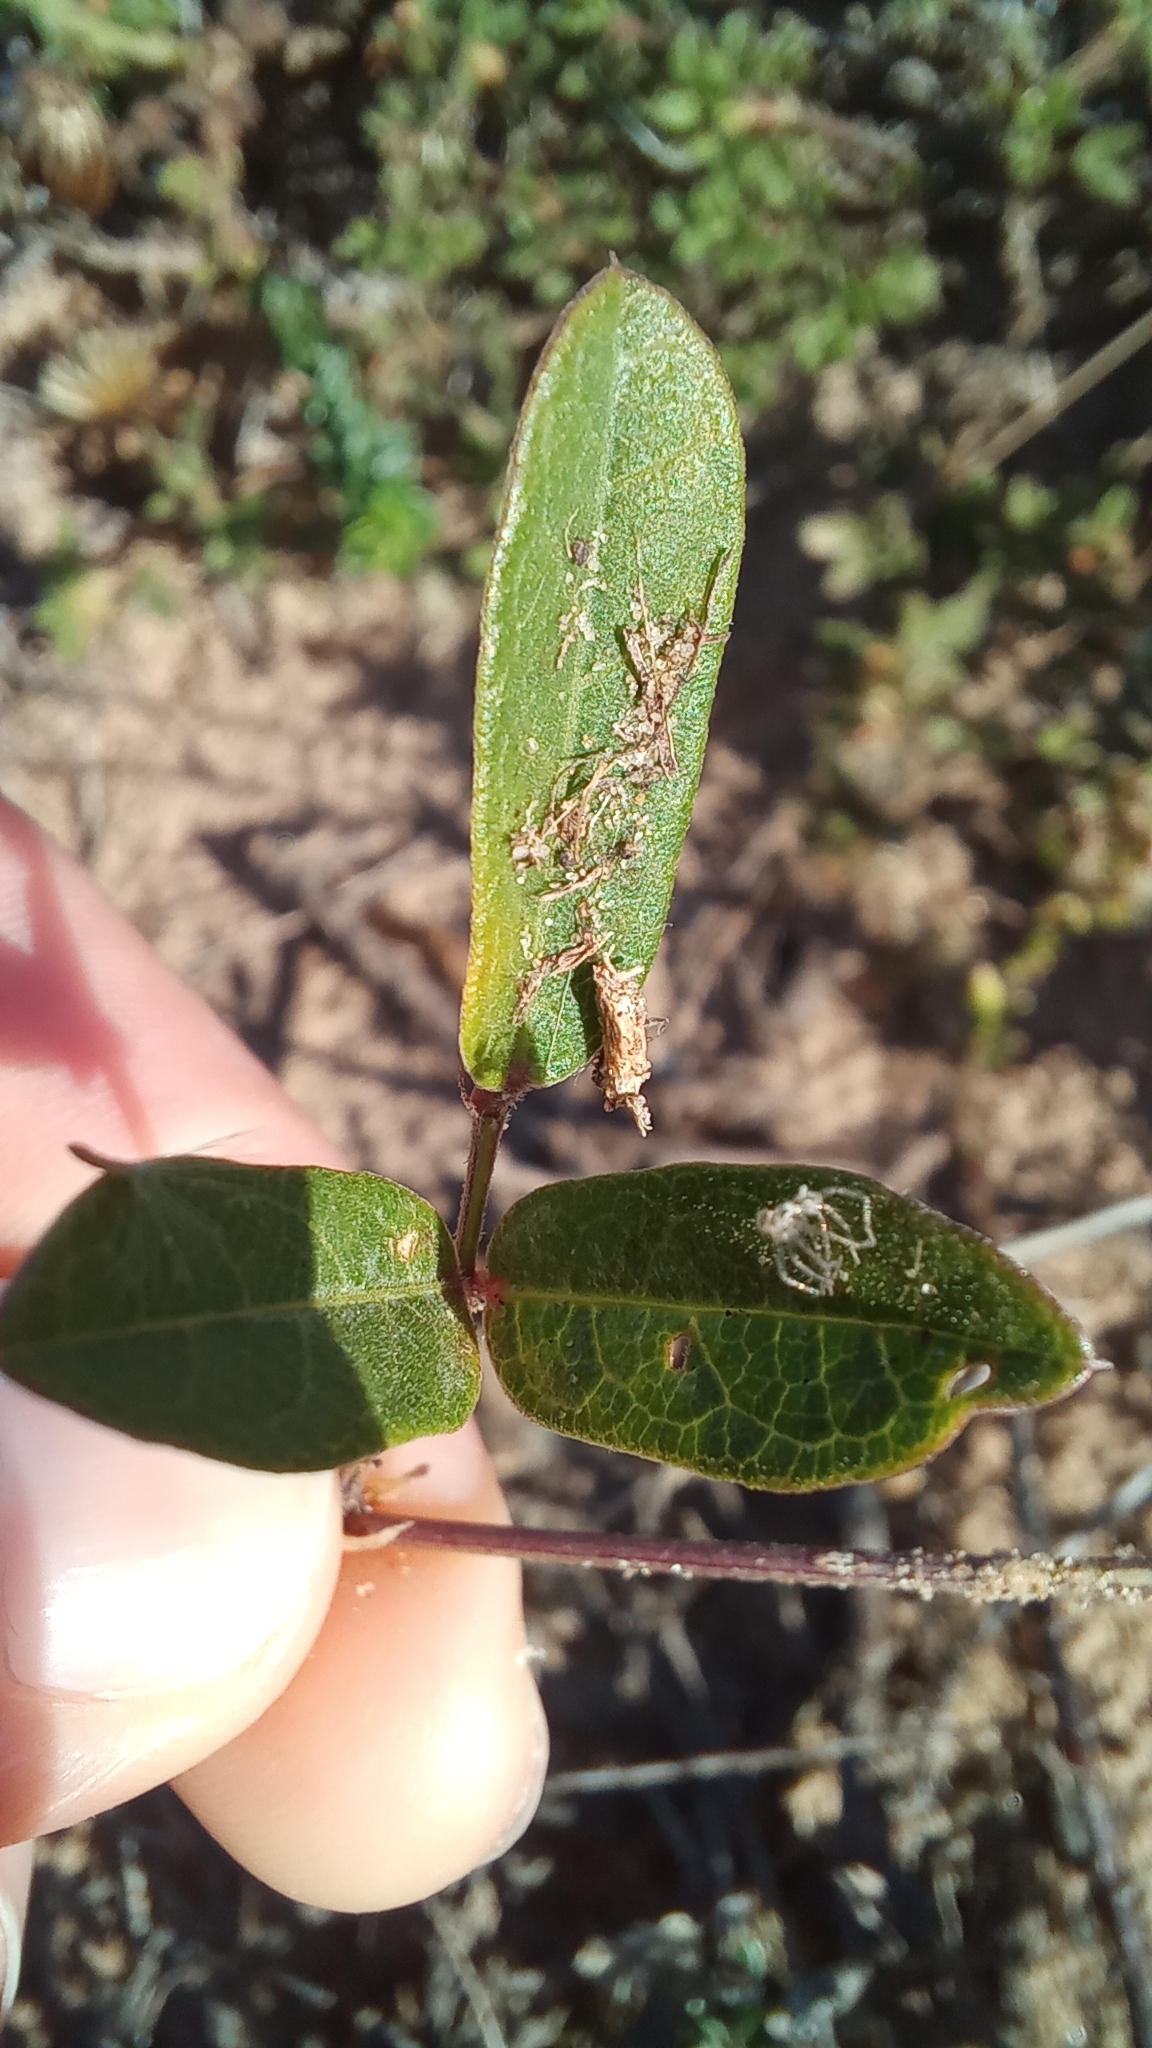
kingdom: Plantae
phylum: Tracheophyta
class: Magnoliopsida
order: Fabales
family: Fabaceae
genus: Centrosema
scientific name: Centrosema virginianum
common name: Butterfly-pea
